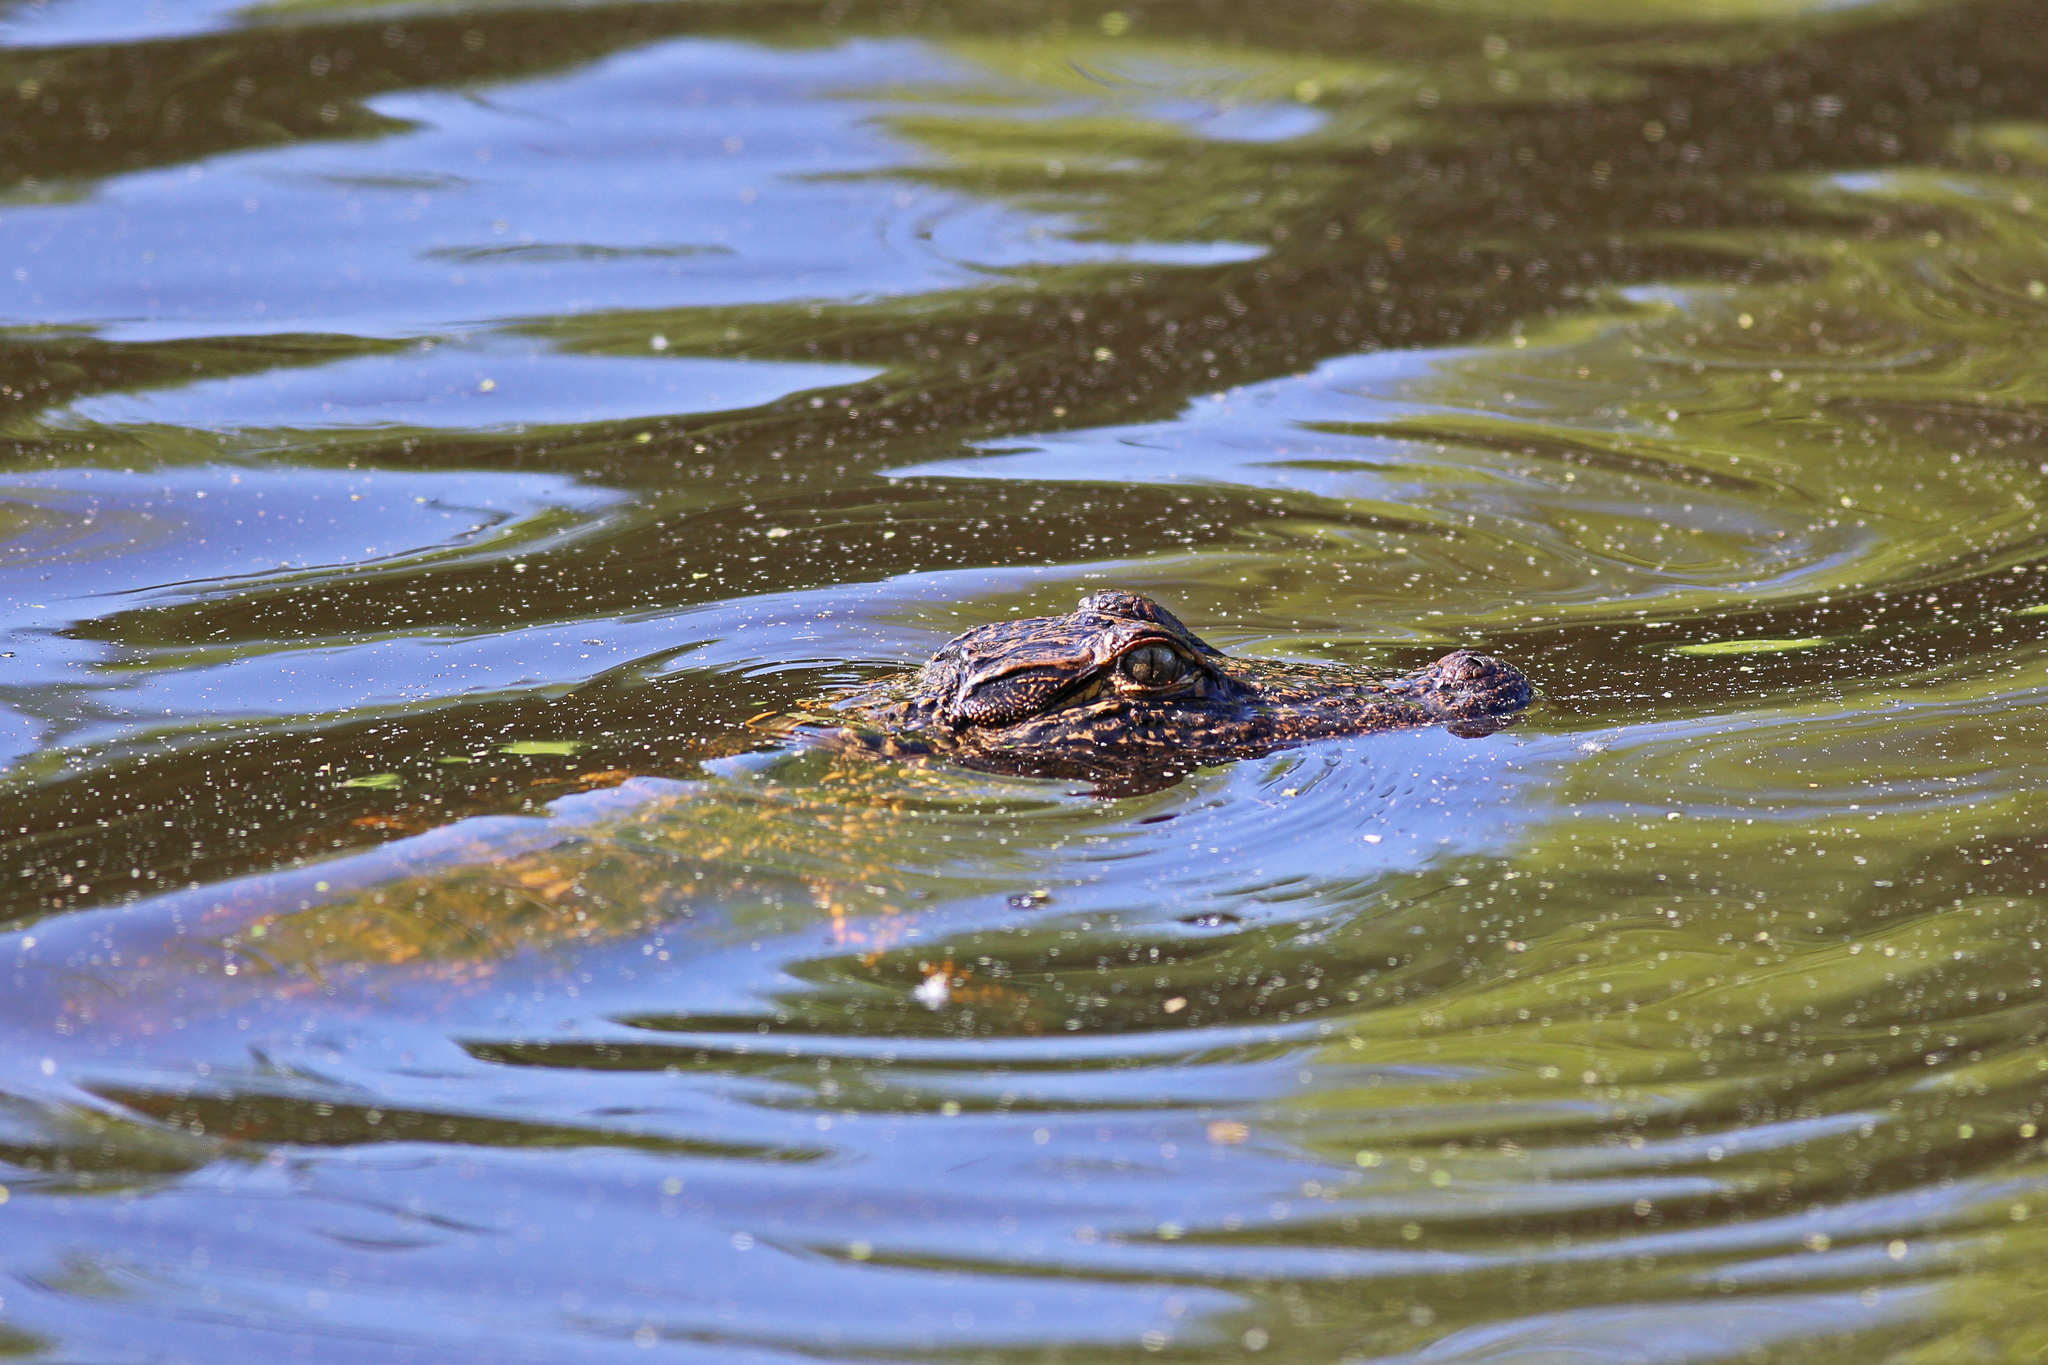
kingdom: Animalia
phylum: Chordata
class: Crocodylia
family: Alligatoridae
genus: Alligator
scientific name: Alligator mississippiensis
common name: American alligator
